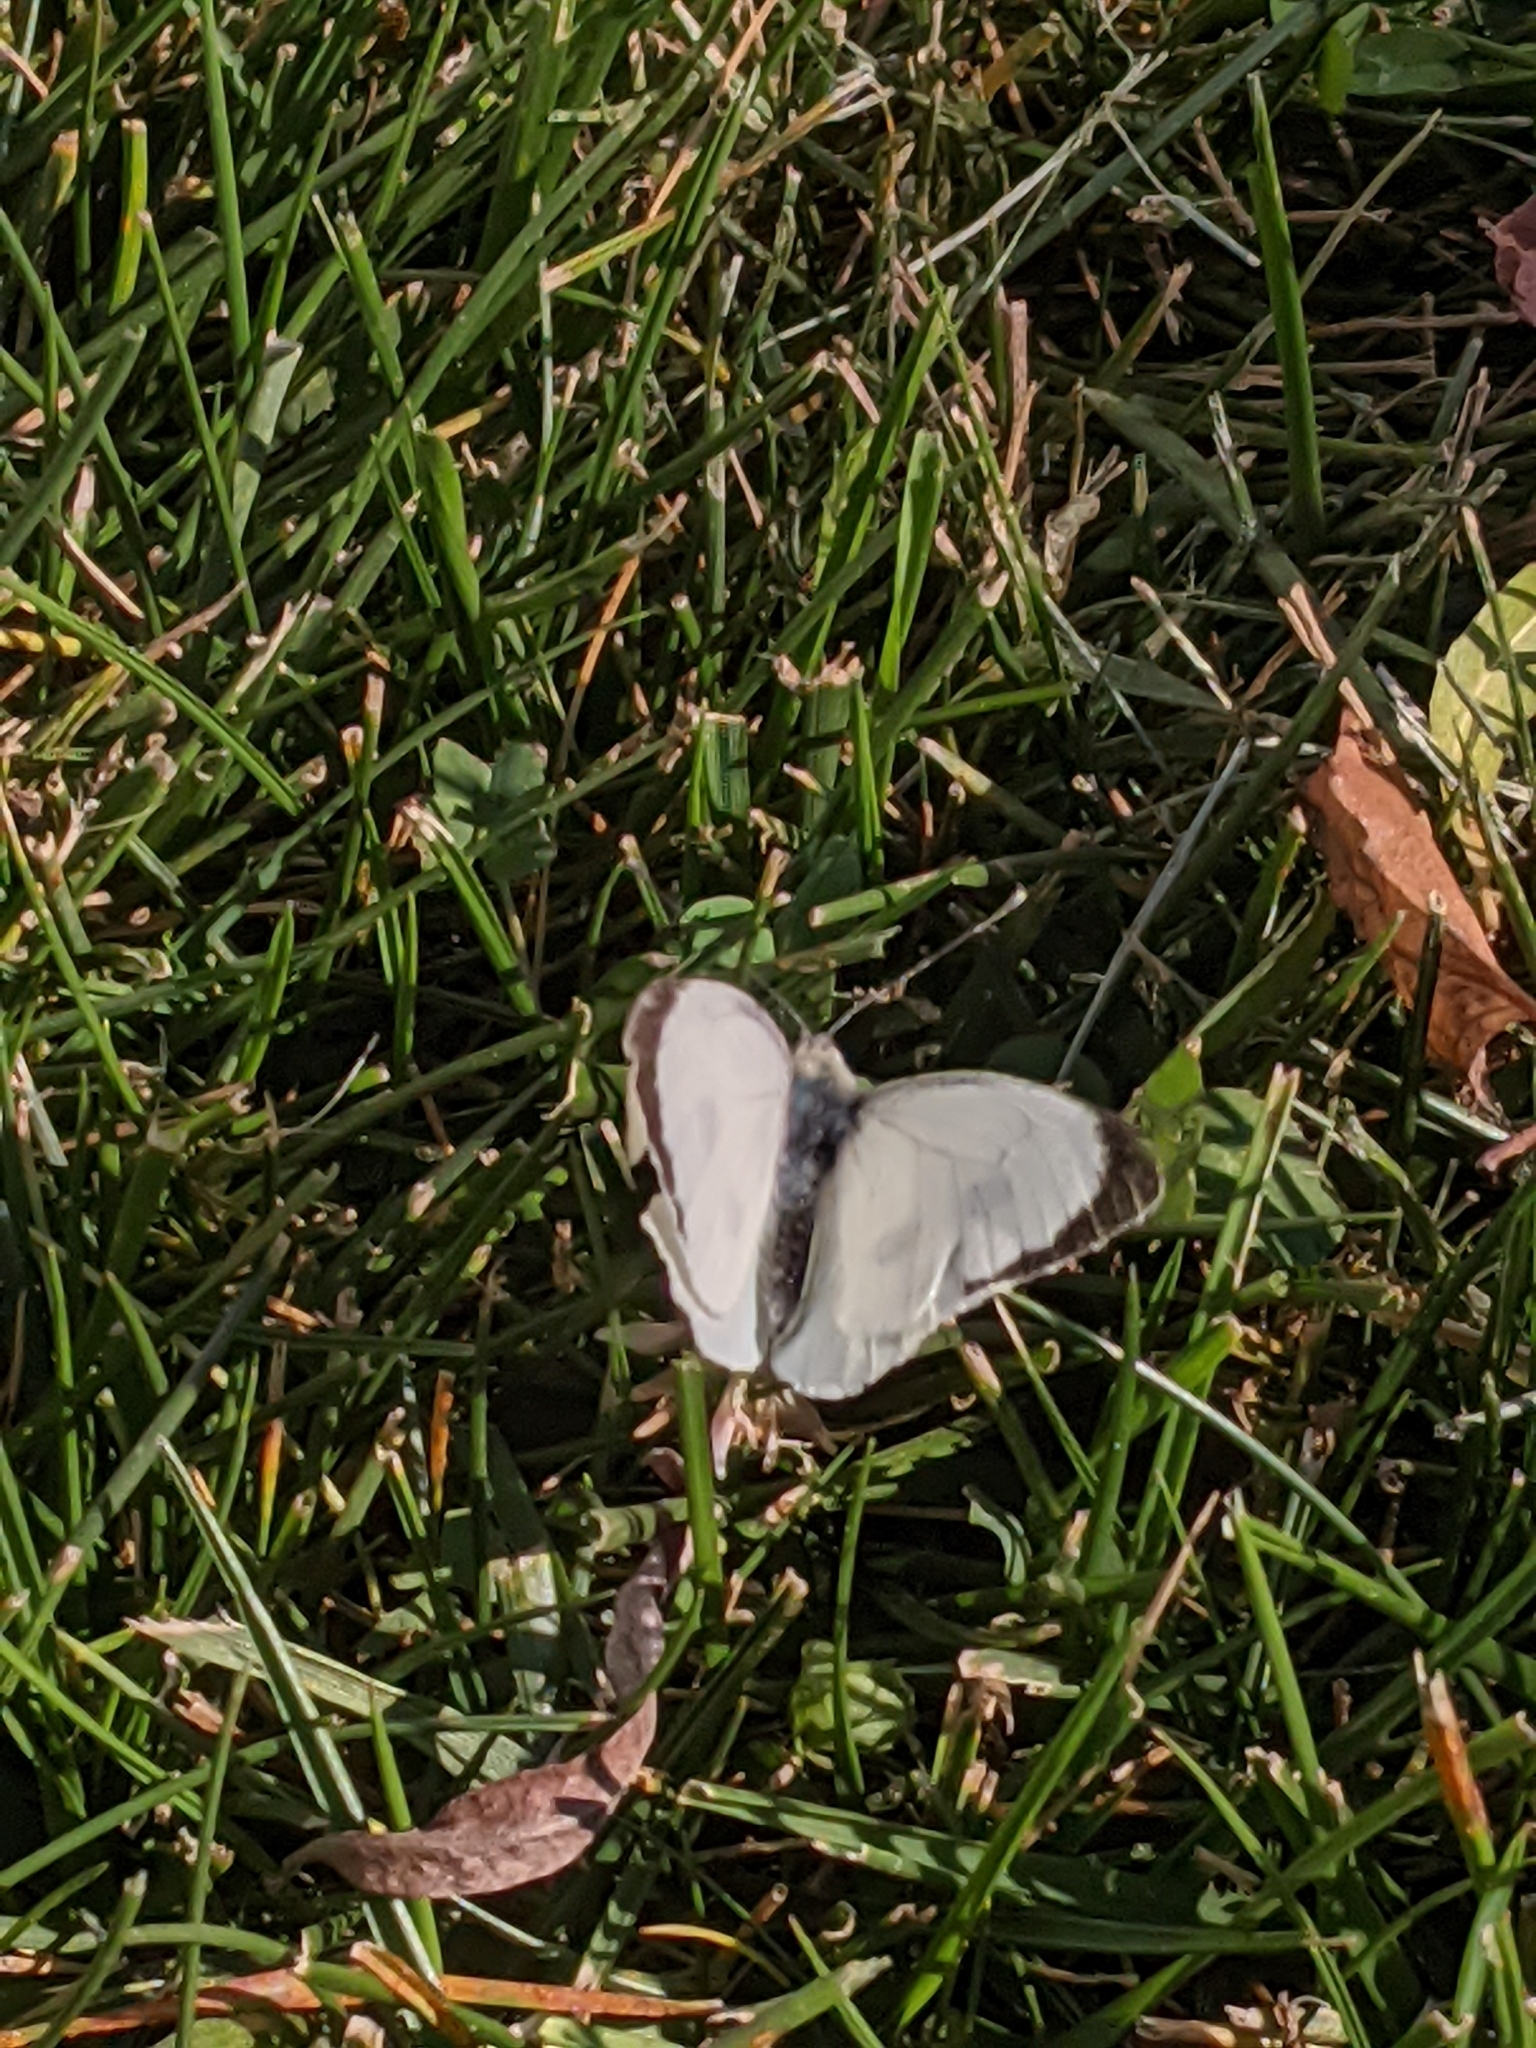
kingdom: Animalia
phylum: Arthropoda
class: Insecta
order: Lepidoptera
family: Pieridae
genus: Pieris
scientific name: Pieris brassicae
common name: Large white
